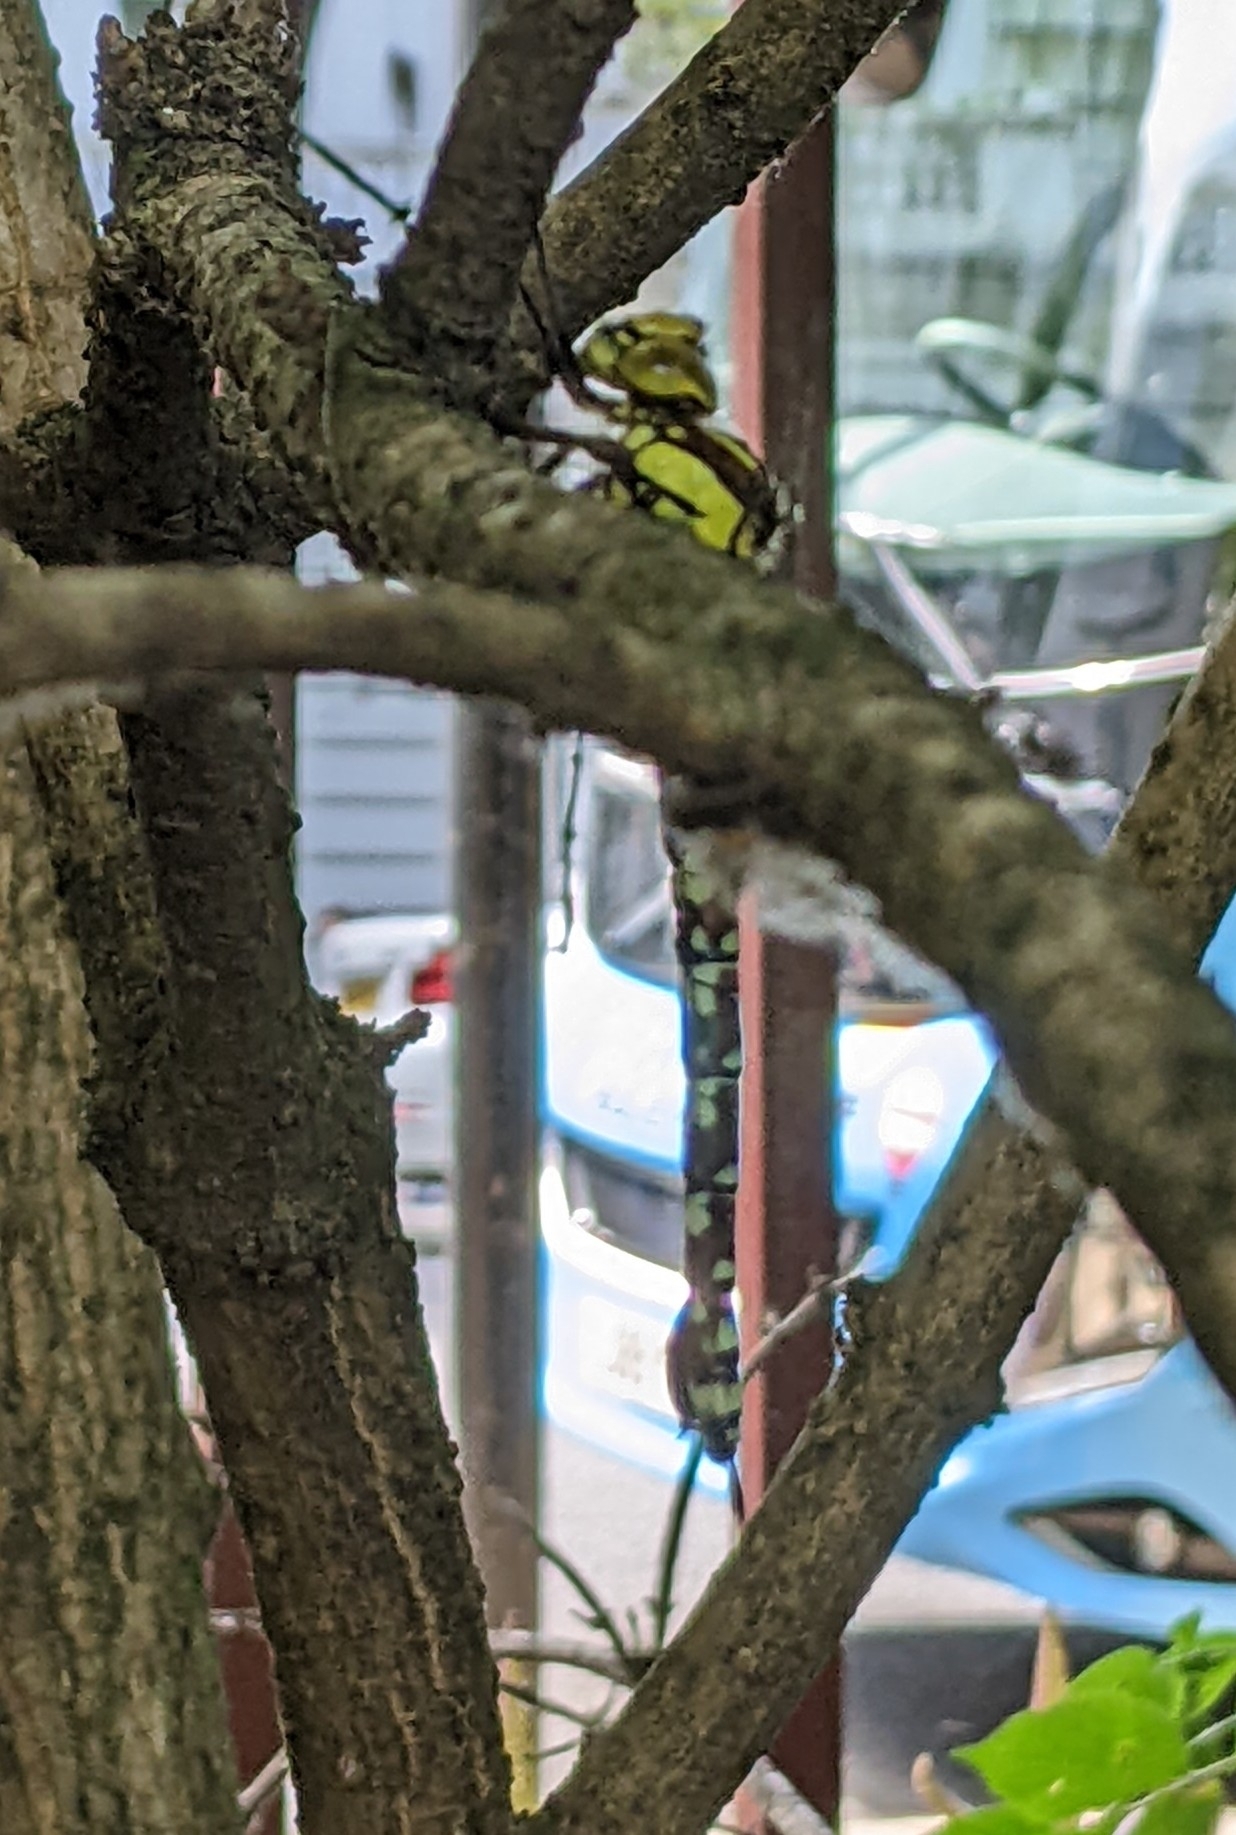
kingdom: Animalia
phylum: Arthropoda
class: Insecta
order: Odonata
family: Aeshnidae
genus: Aeshna
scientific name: Aeshna cyanea
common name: Southern hawker
